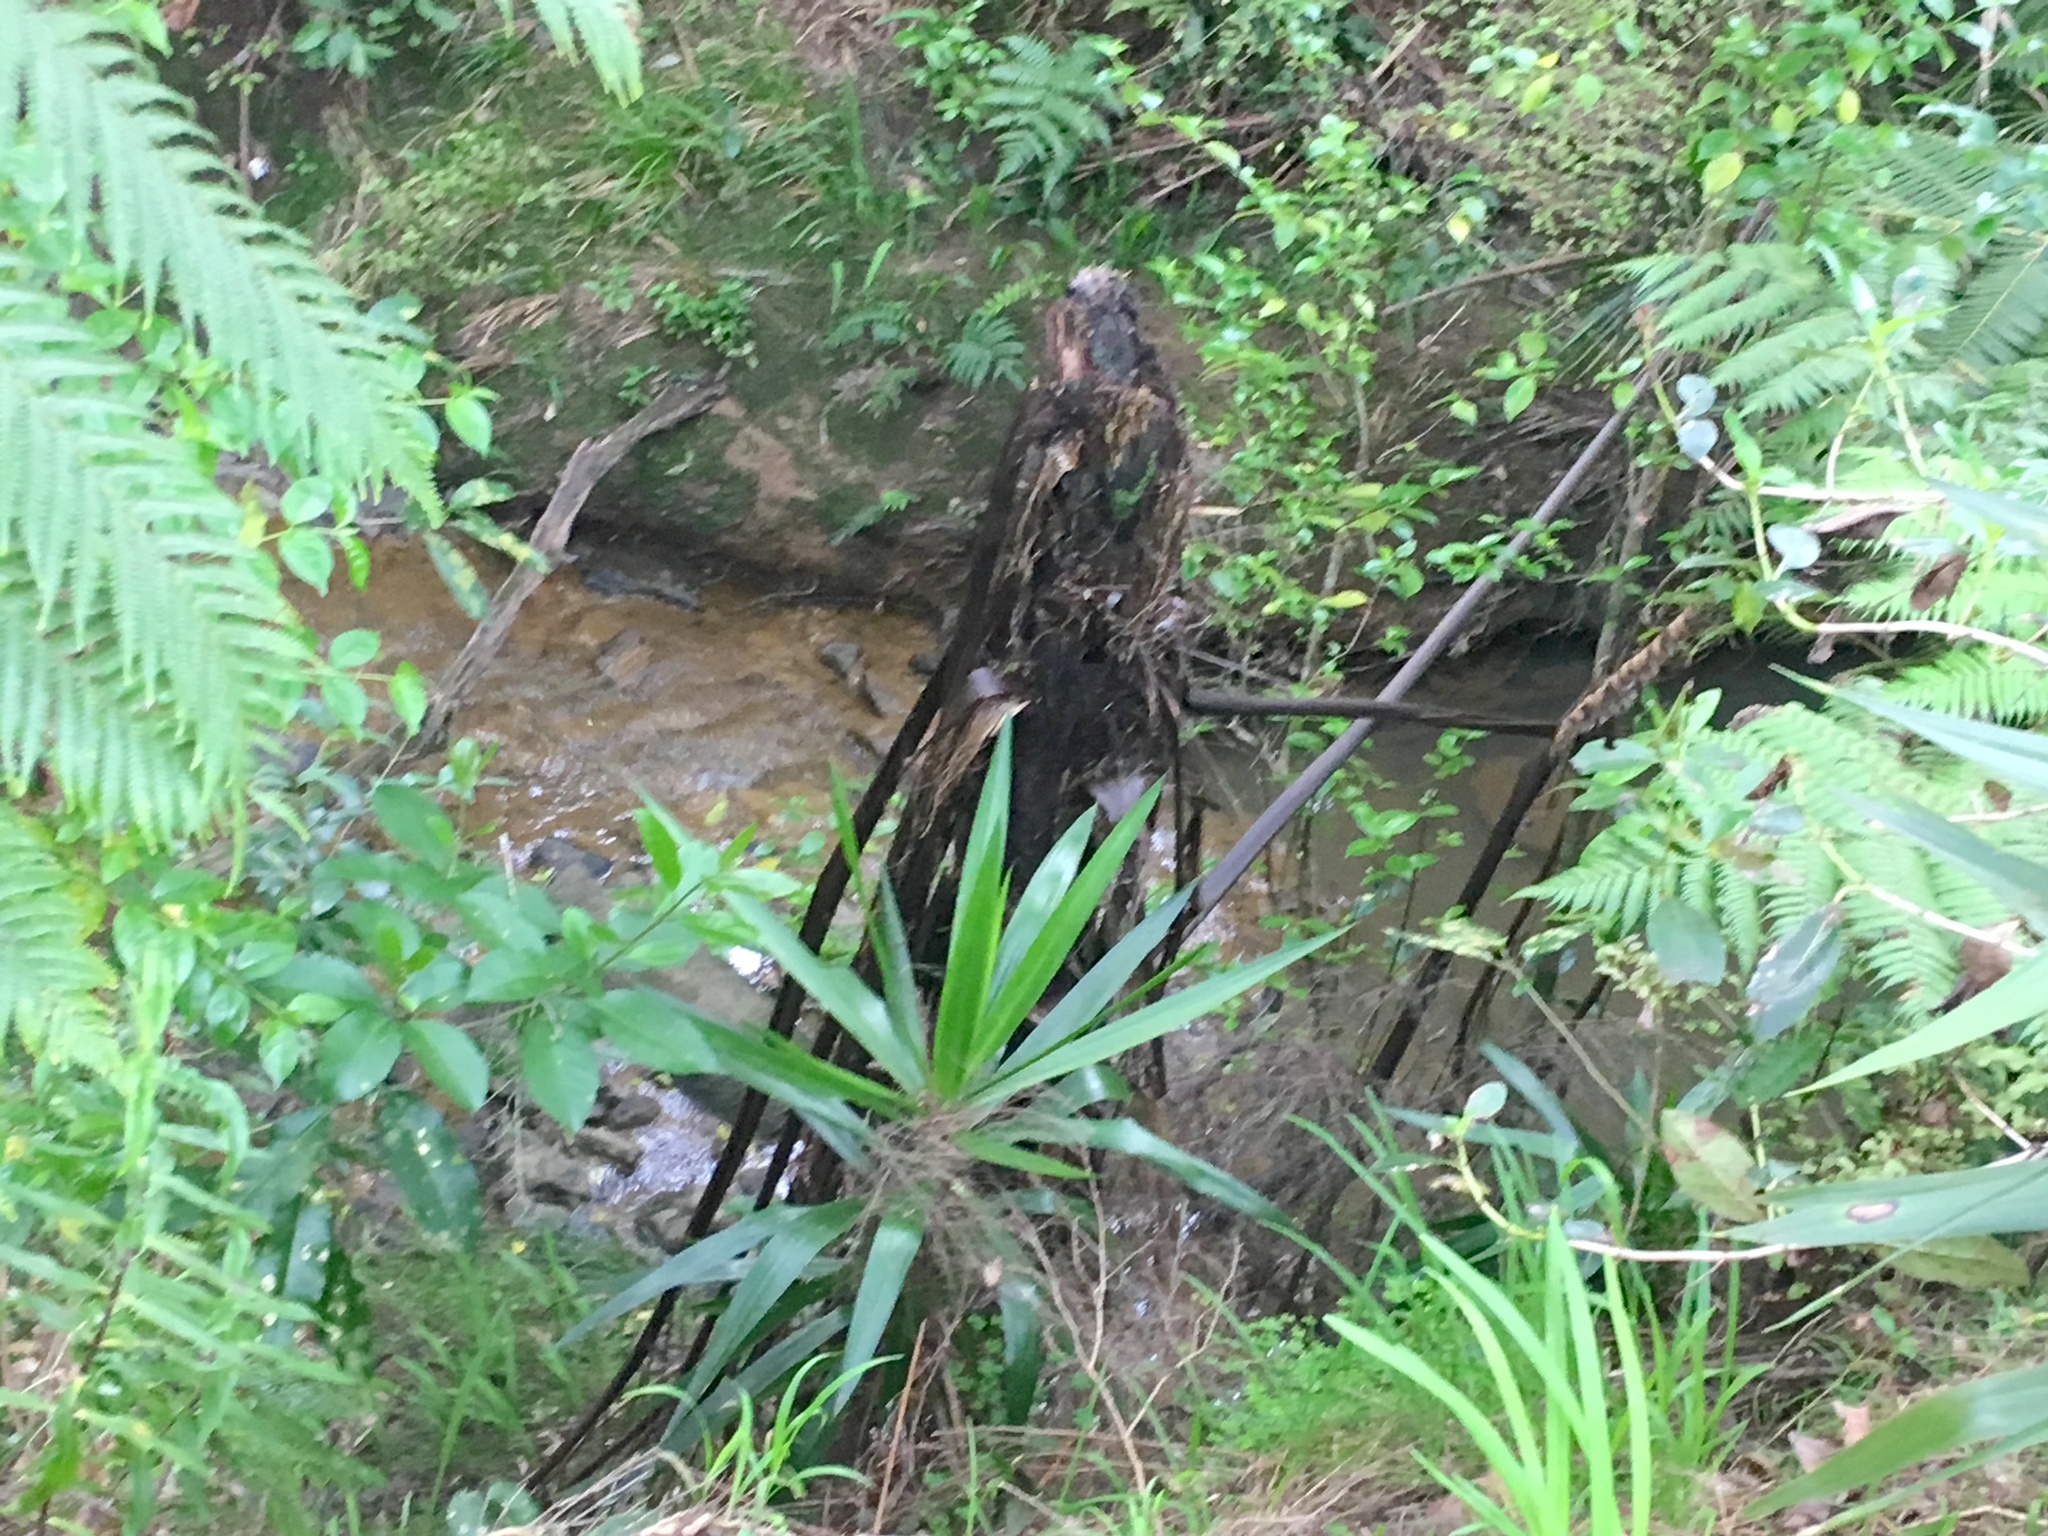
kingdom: Plantae
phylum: Tracheophyta
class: Polypodiopsida
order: Cyatheales
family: Cyatheaceae
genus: Sphaeropteris
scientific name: Sphaeropteris medullaris
